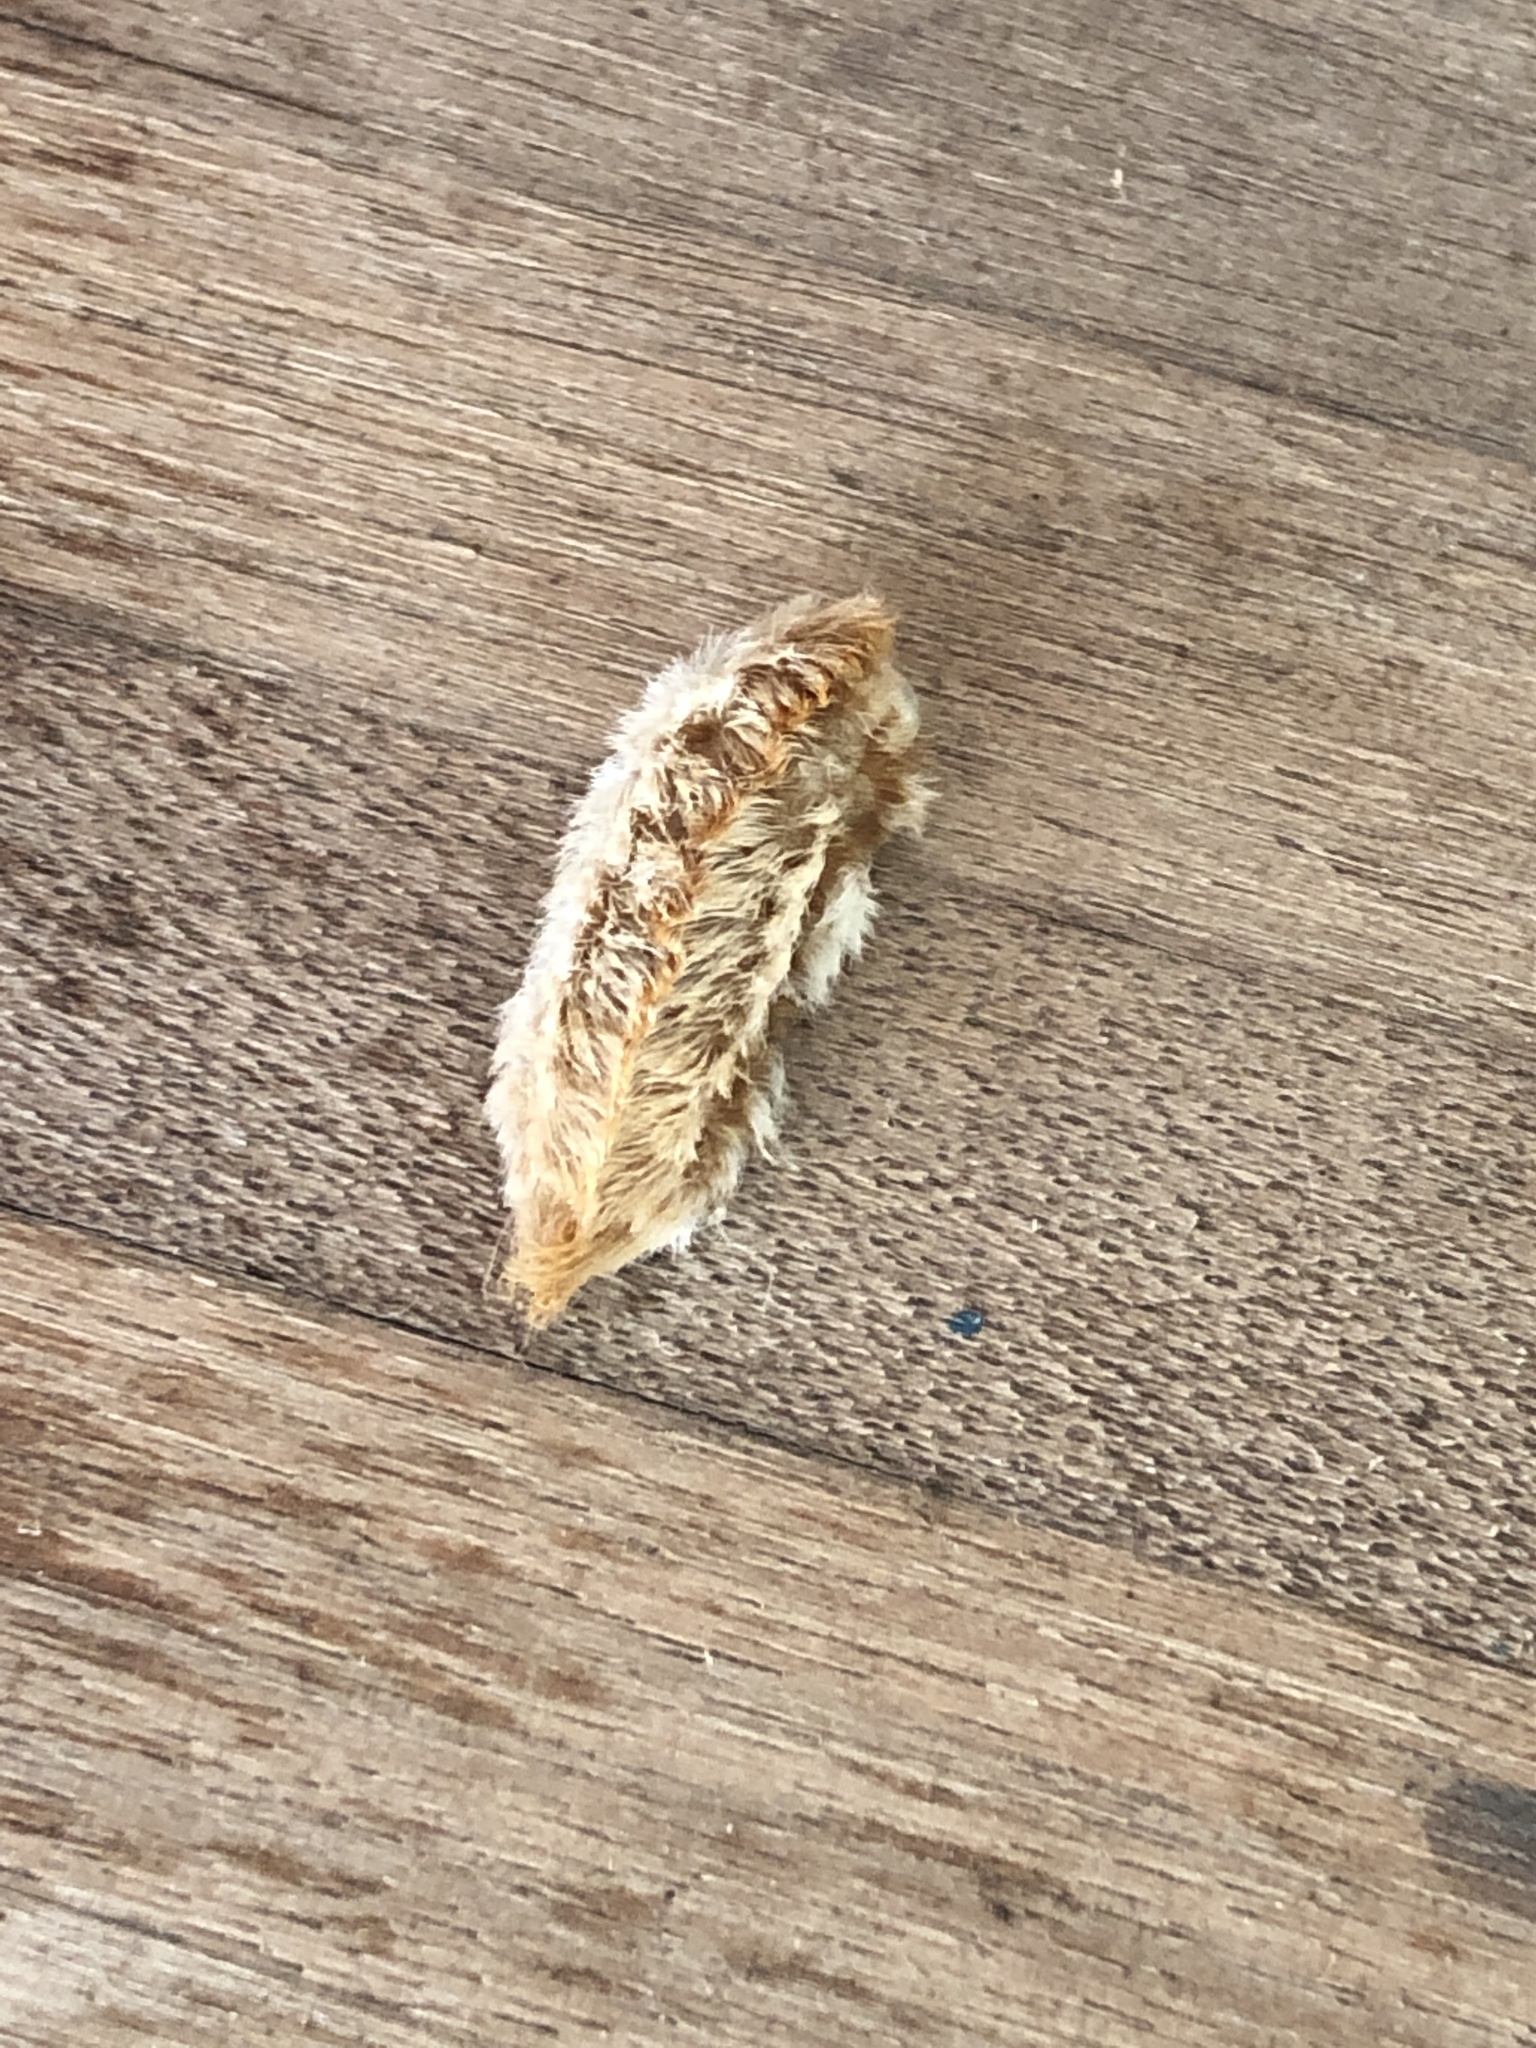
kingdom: Animalia
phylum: Arthropoda
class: Insecta
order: Lepidoptera
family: Megalopygidae
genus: Megalopyge
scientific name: Megalopyge opercularis
